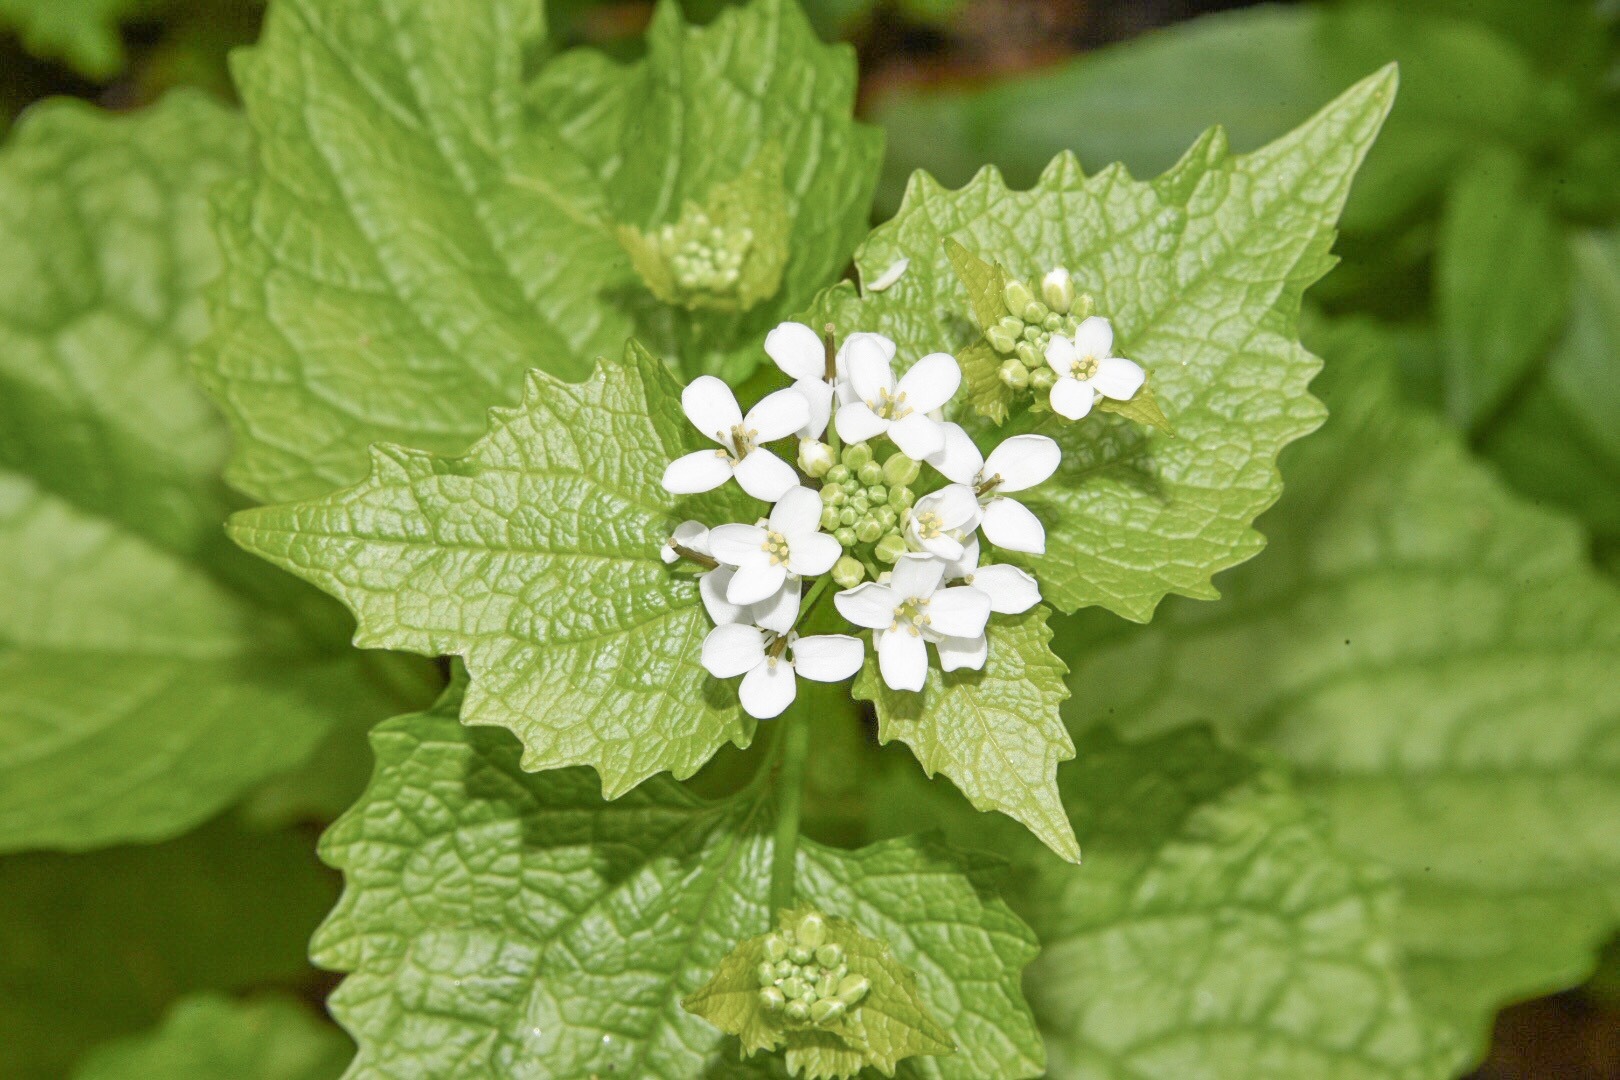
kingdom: Plantae
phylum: Tracheophyta
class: Magnoliopsida
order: Brassicales
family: Brassicaceae
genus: Alliaria
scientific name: Alliaria petiolata
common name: Garlic mustard
